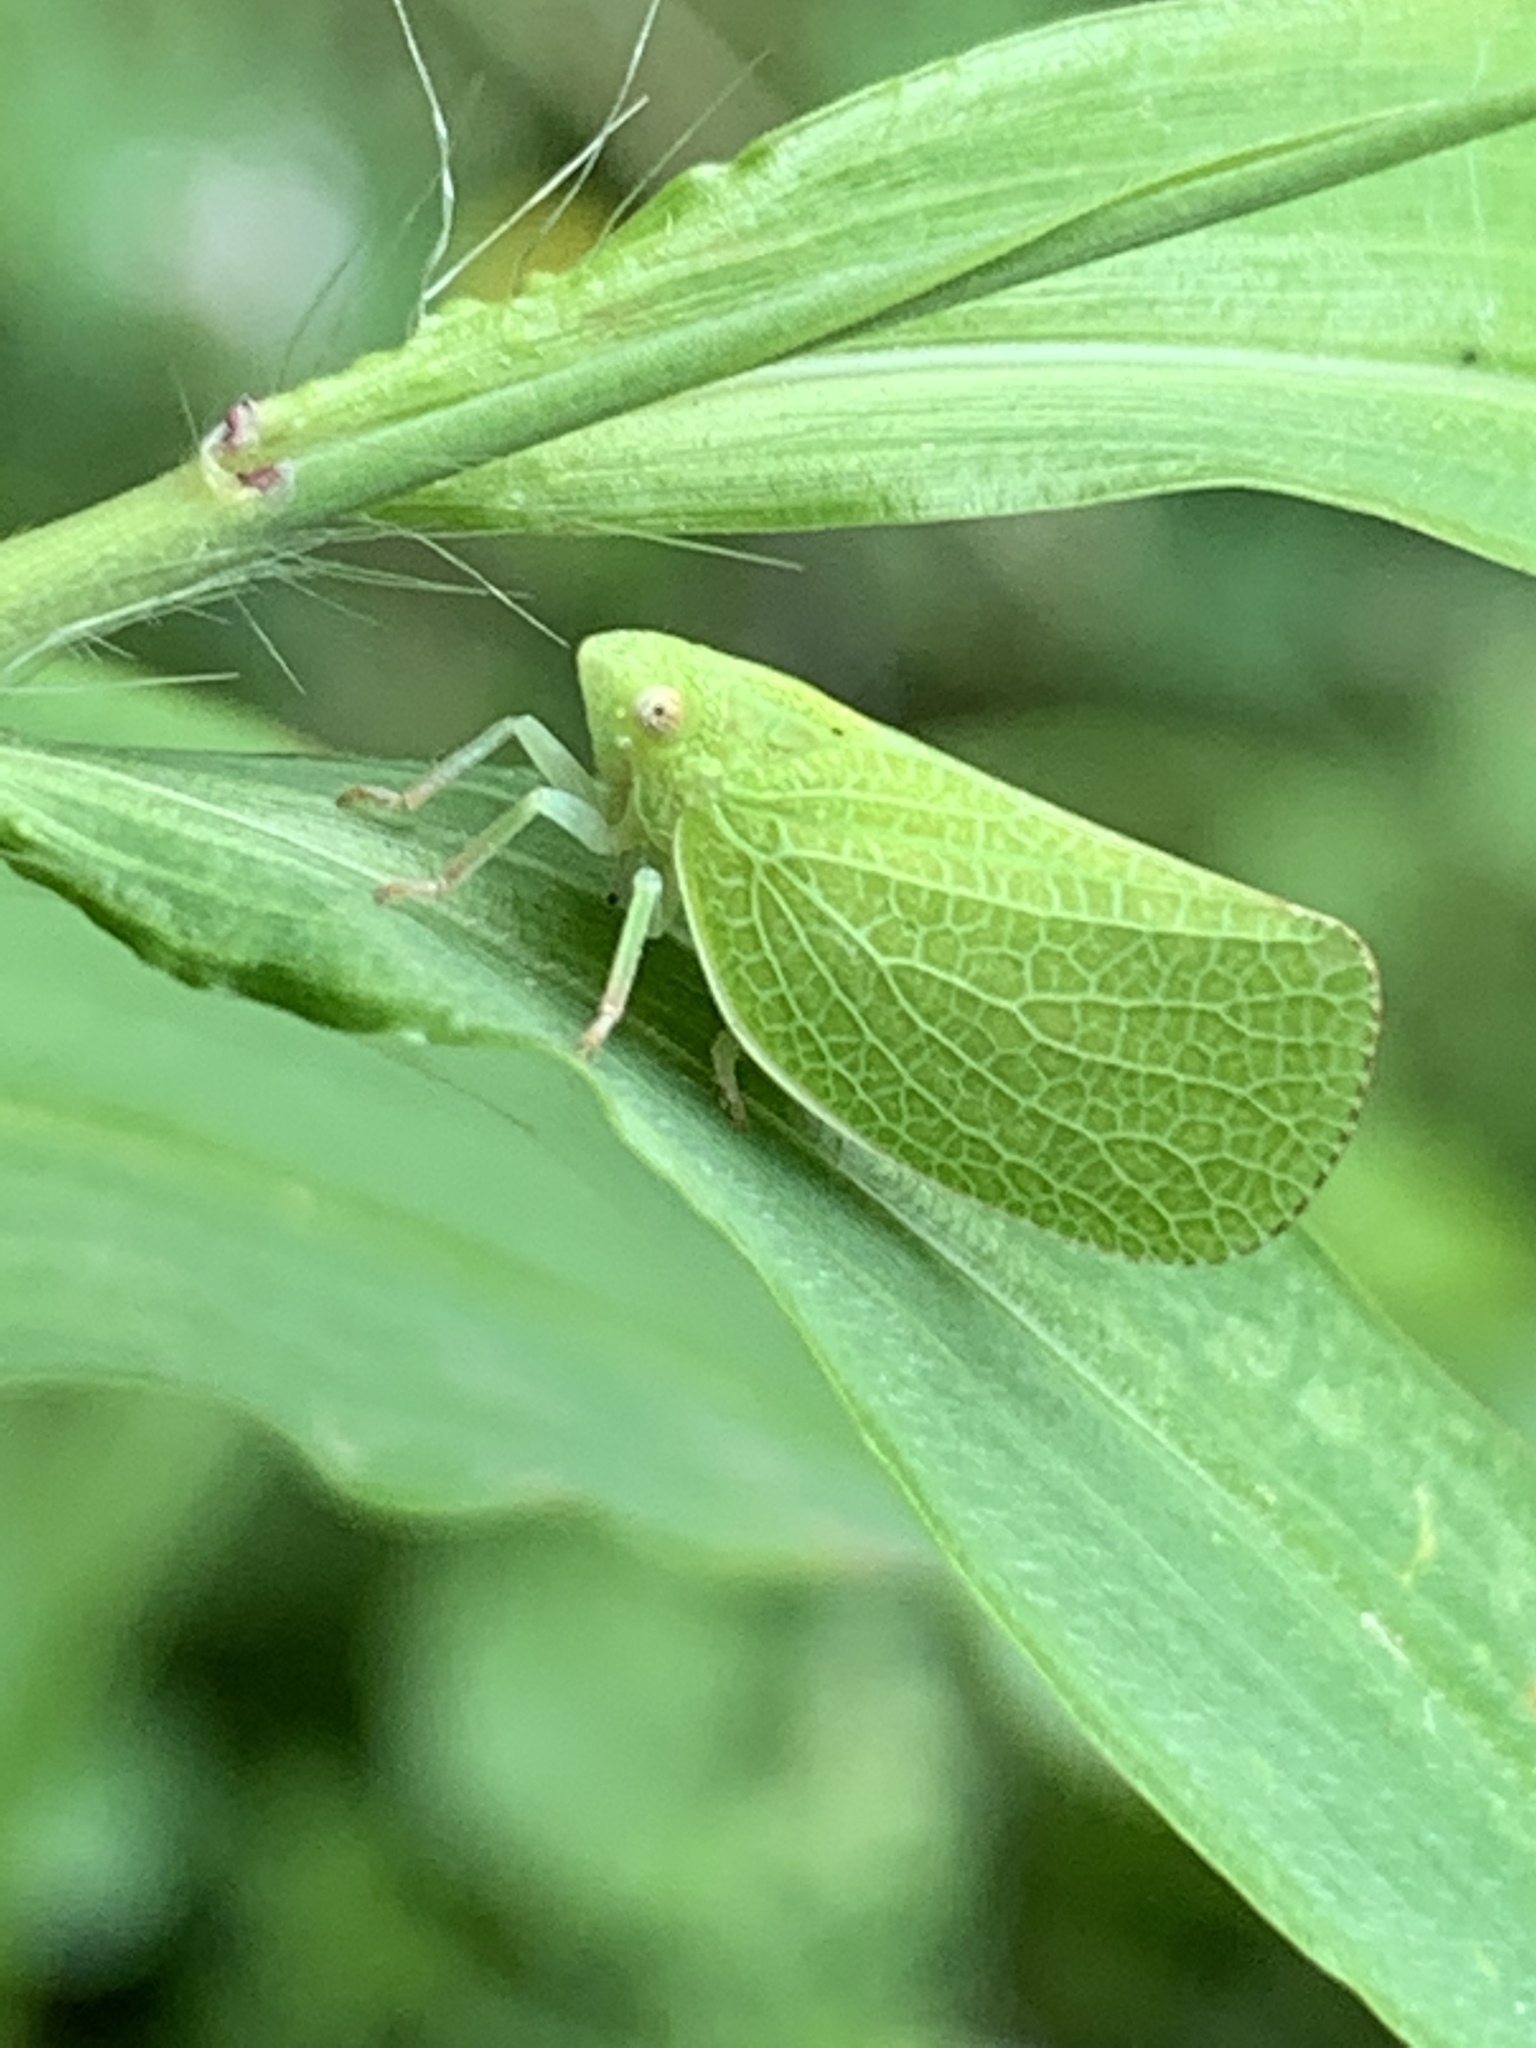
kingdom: Animalia
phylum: Arthropoda
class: Insecta
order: Hemiptera
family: Acanaloniidae
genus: Acanalonia
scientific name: Acanalonia conica
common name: Green cone-headed planthopper
